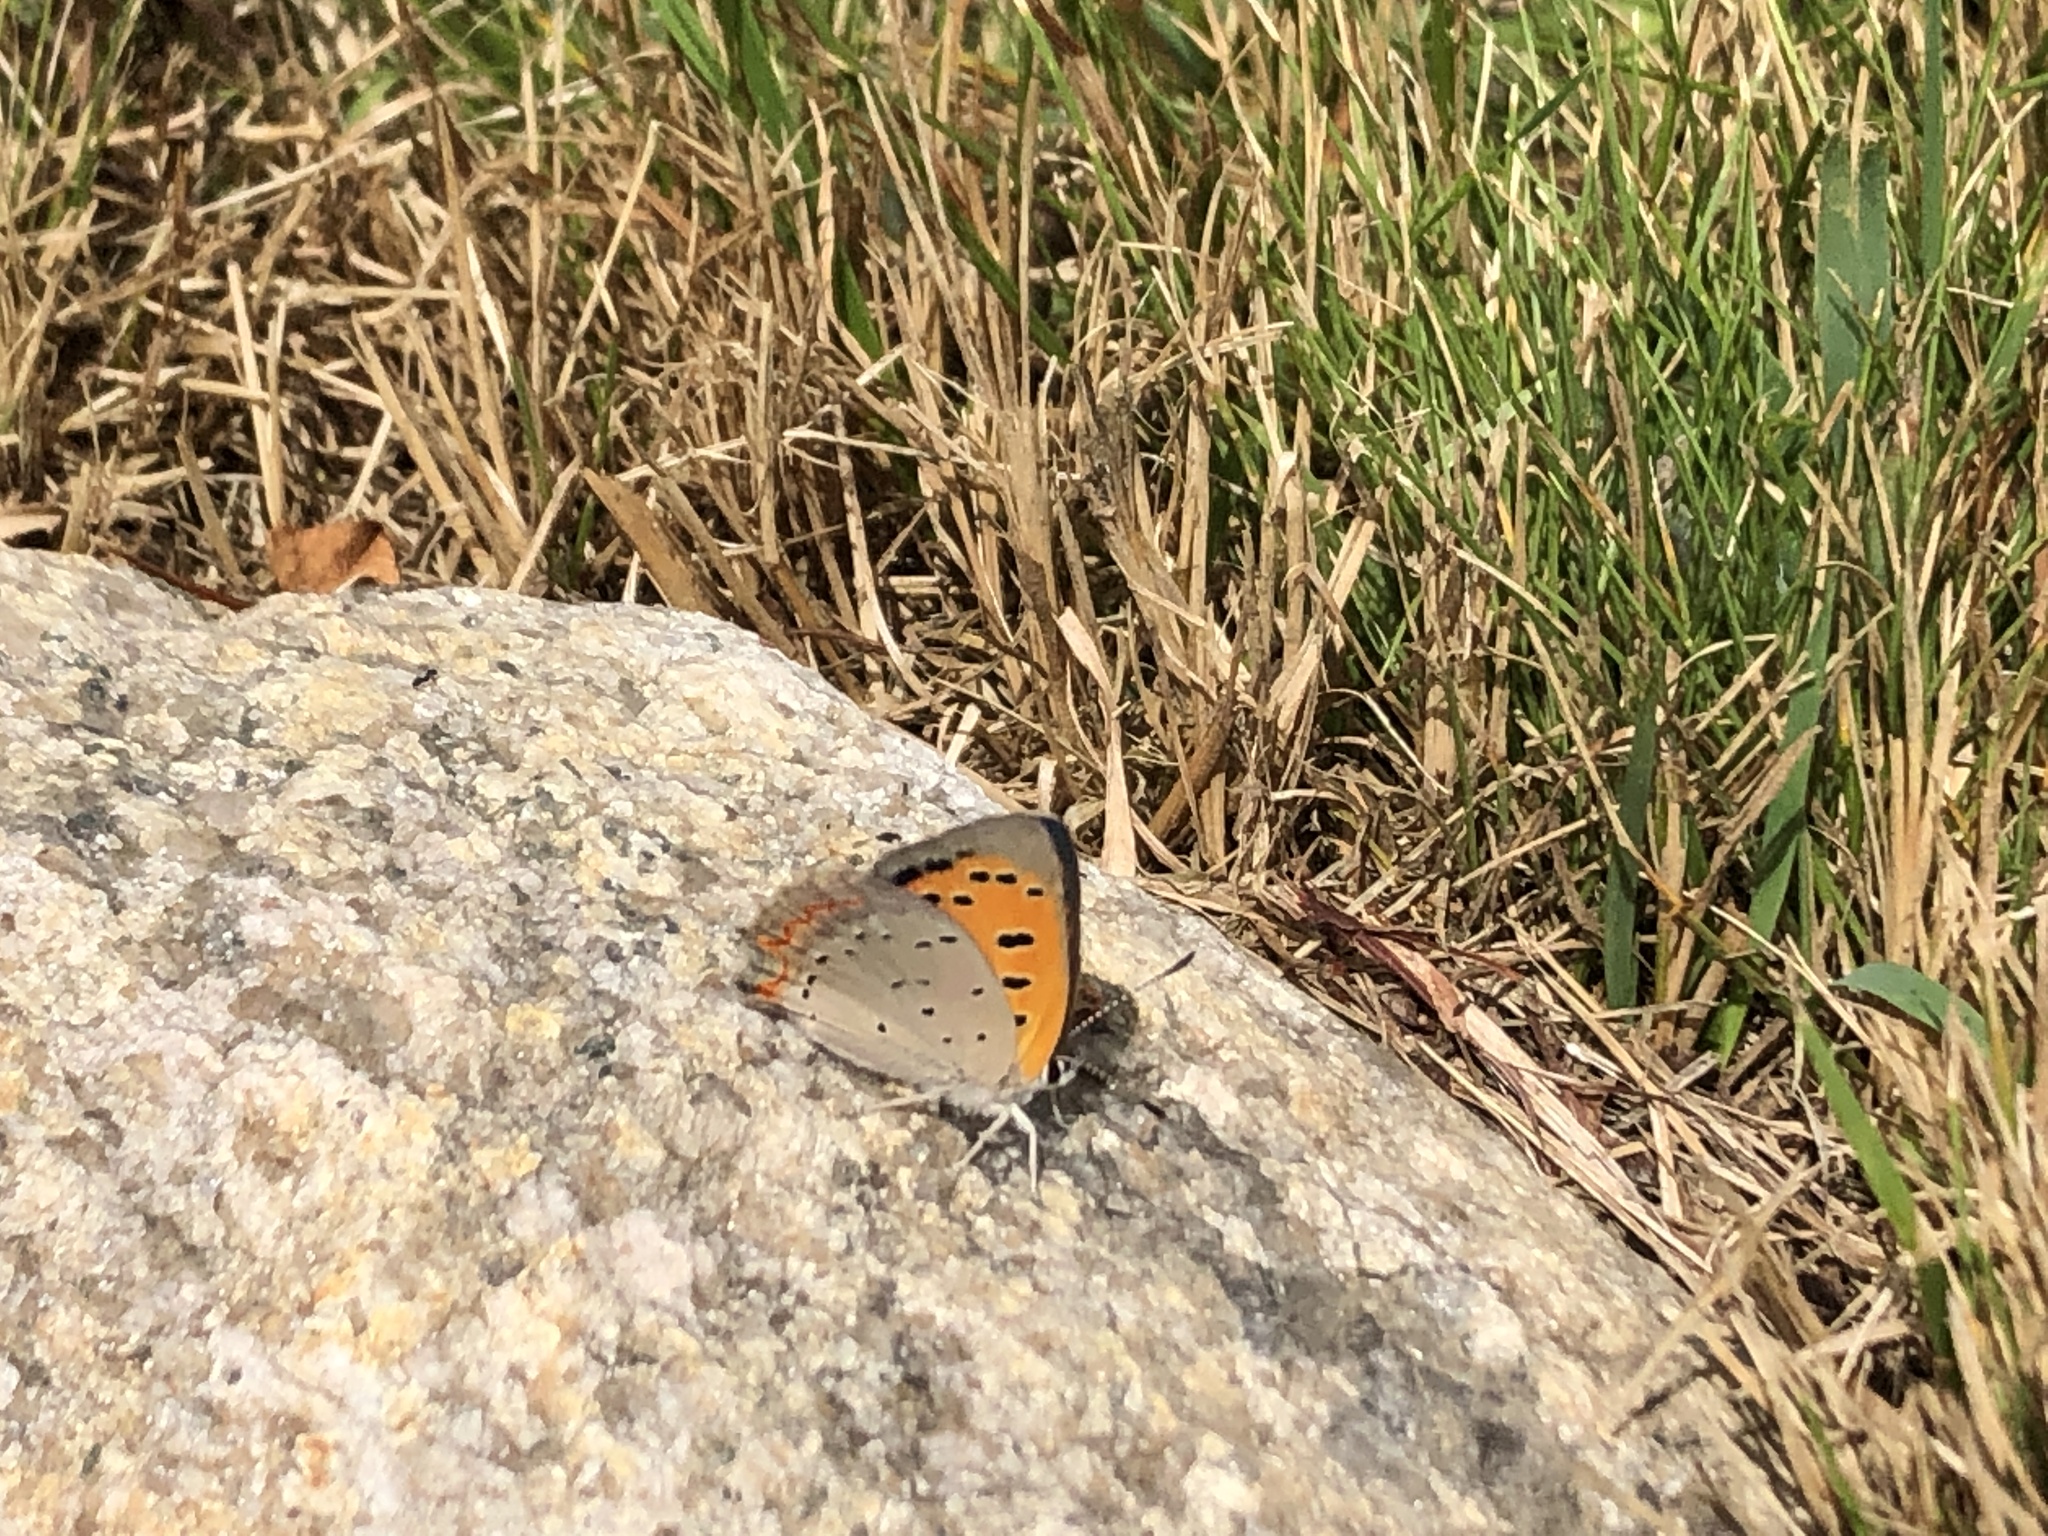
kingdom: Animalia
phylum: Arthropoda
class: Insecta
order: Lepidoptera
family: Lycaenidae
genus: Lycaena
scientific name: Lycaena hypophlaeas
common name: American copper
